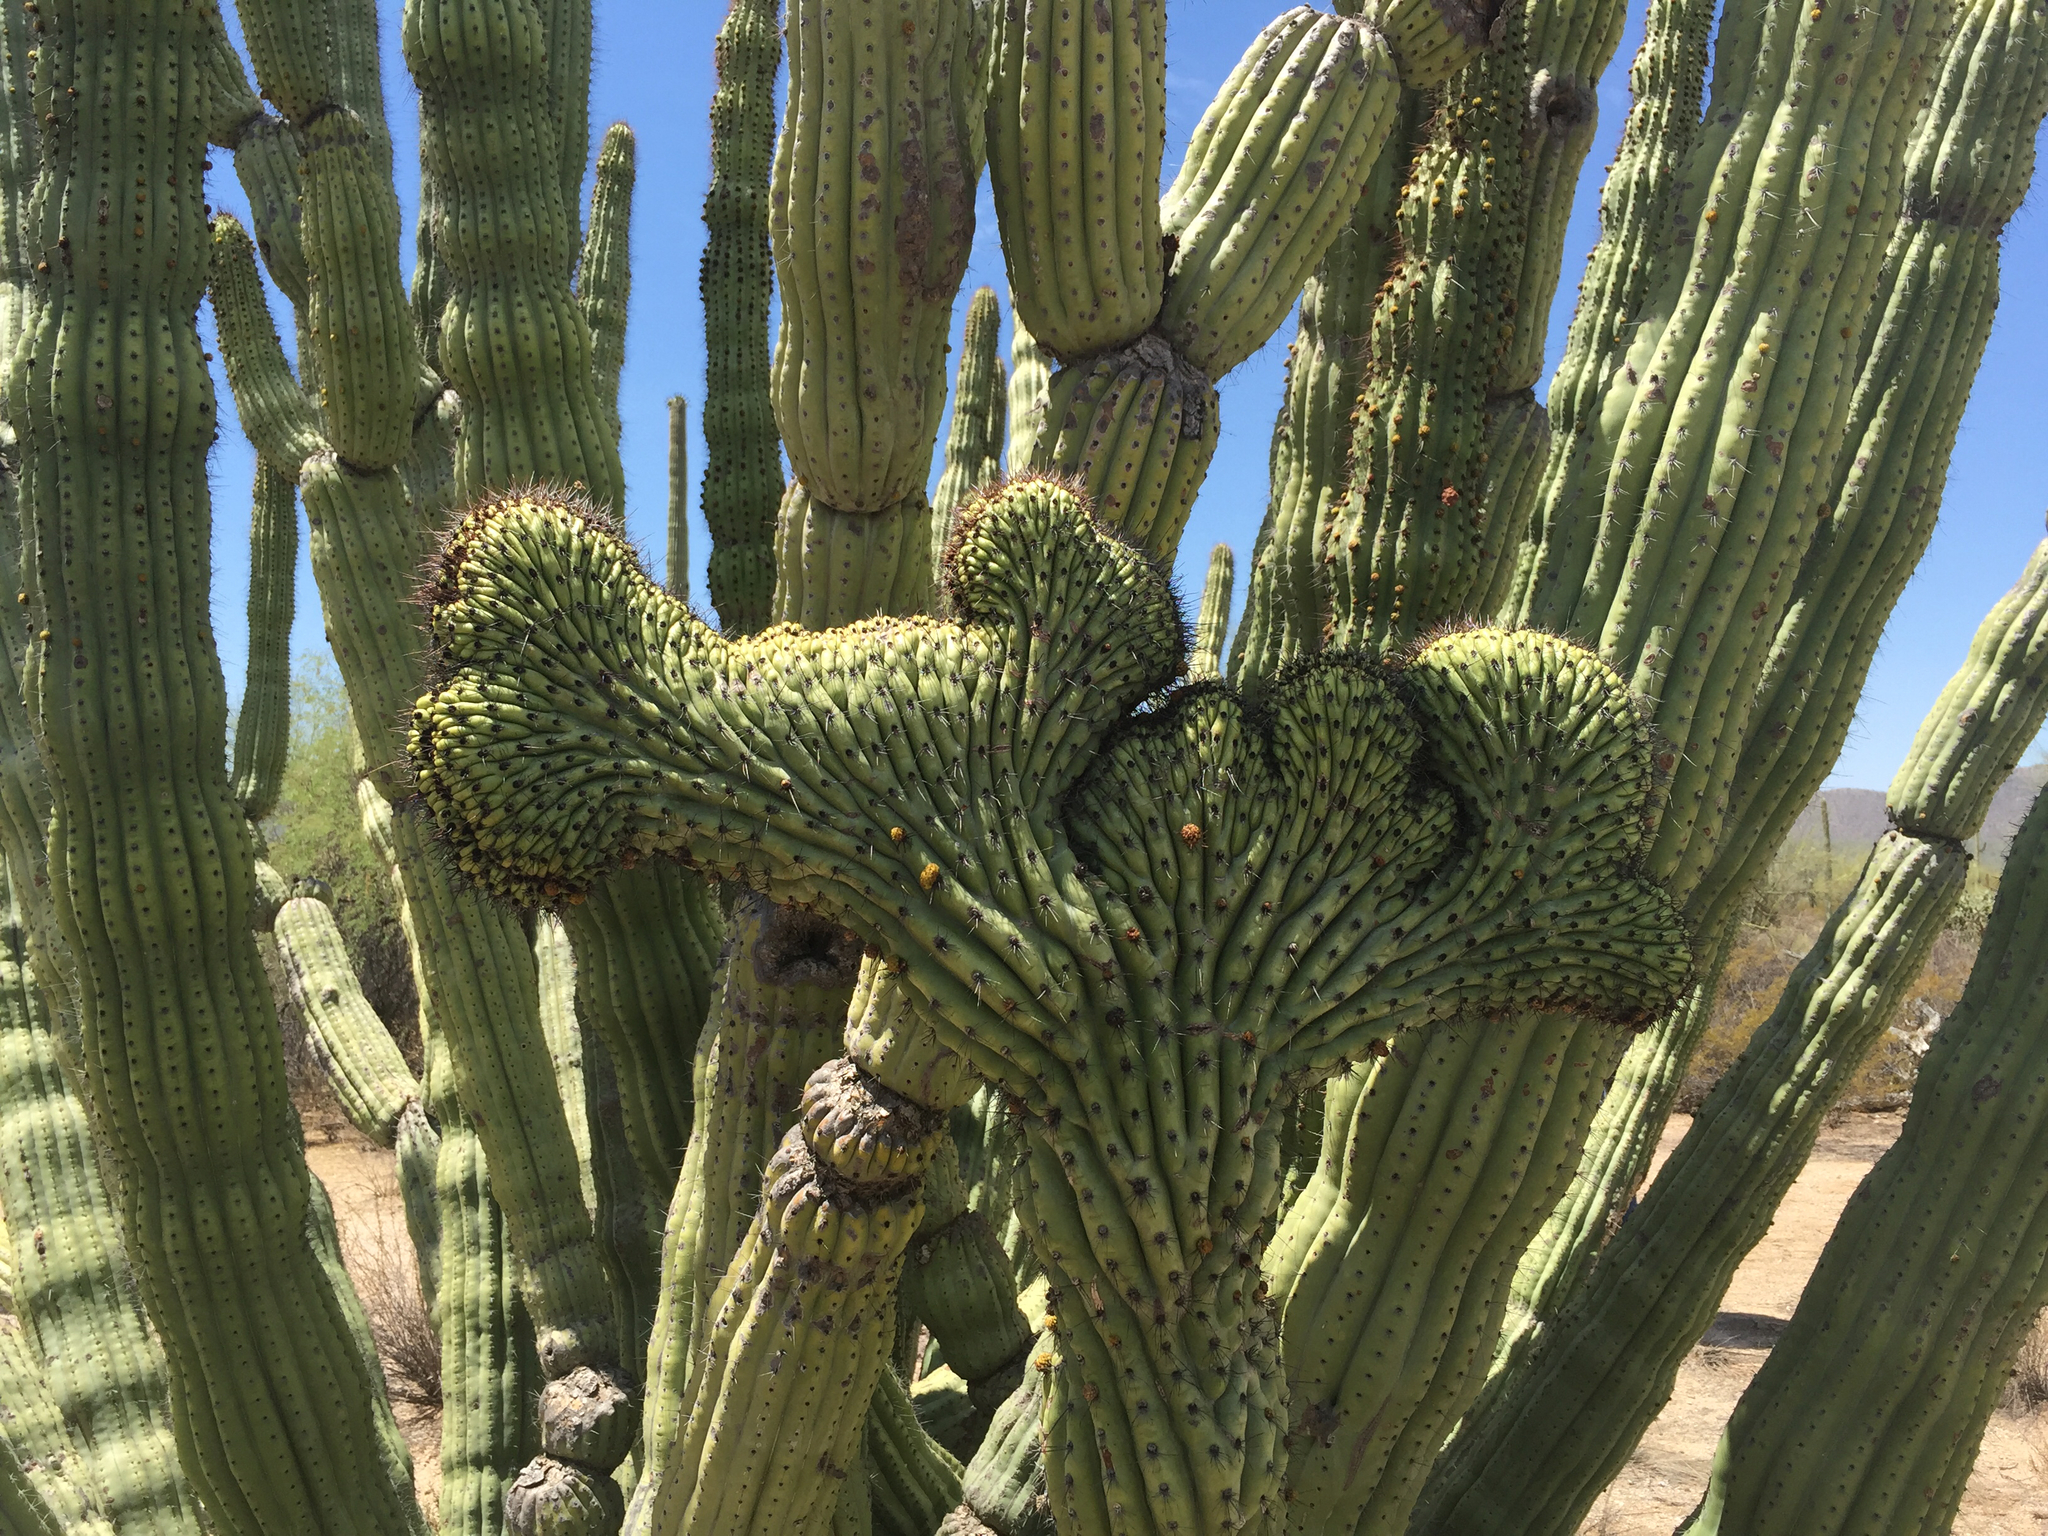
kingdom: Plantae
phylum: Tracheophyta
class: Magnoliopsida
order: Caryophyllales
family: Cactaceae
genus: Stenocereus
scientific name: Stenocereus thurberi
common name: Organ pipe cactus
